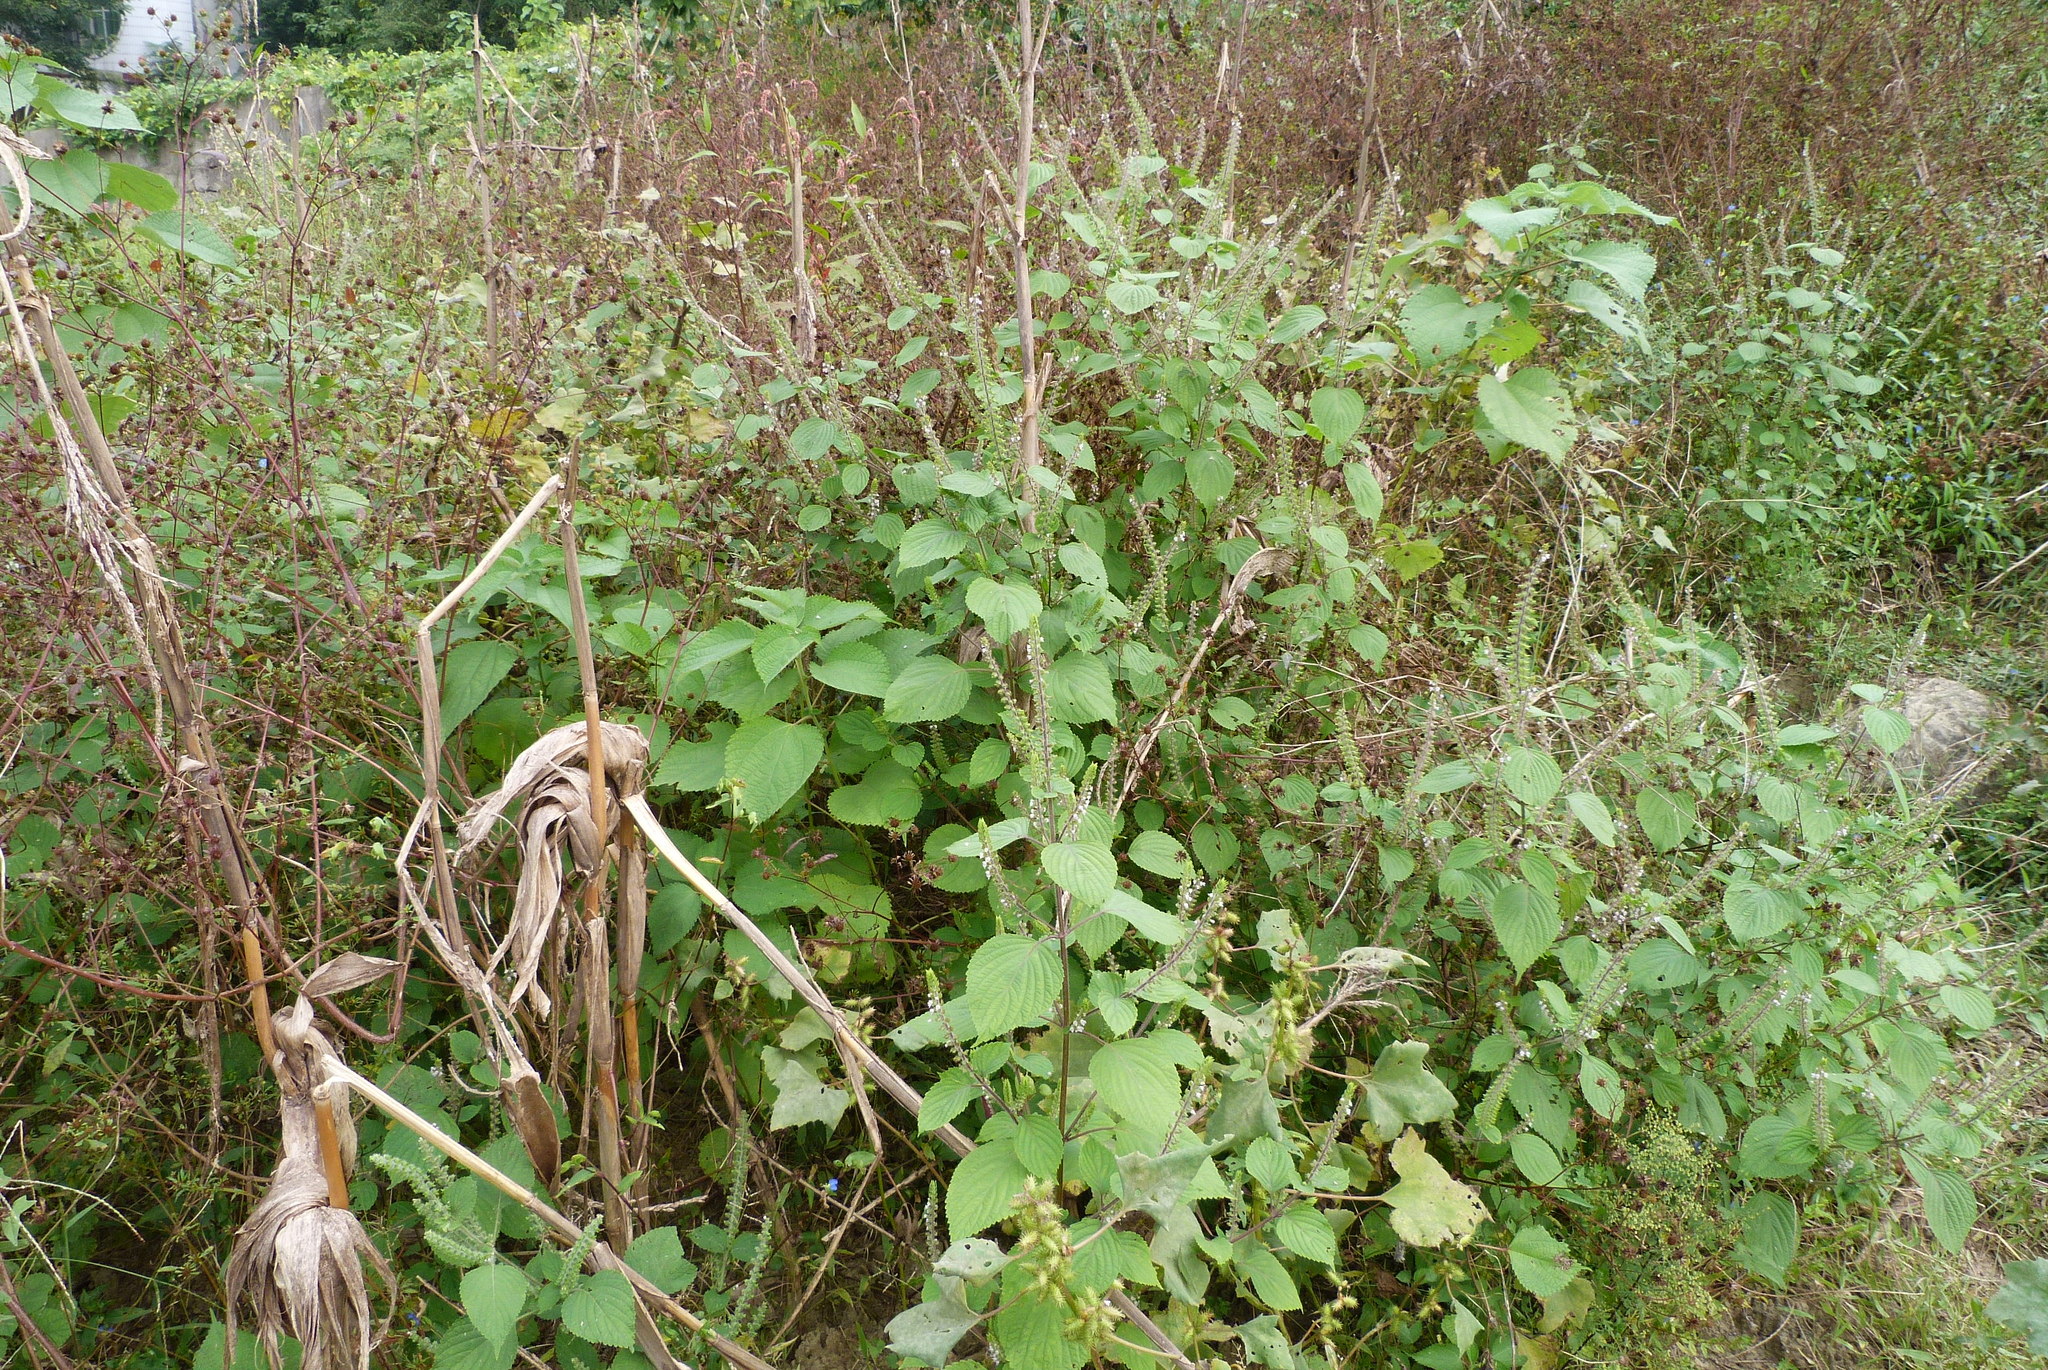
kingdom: Plantae
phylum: Tracheophyta
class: Magnoliopsida
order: Lamiales
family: Lamiaceae
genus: Perilla
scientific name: Perilla frutescens
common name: Perilla
